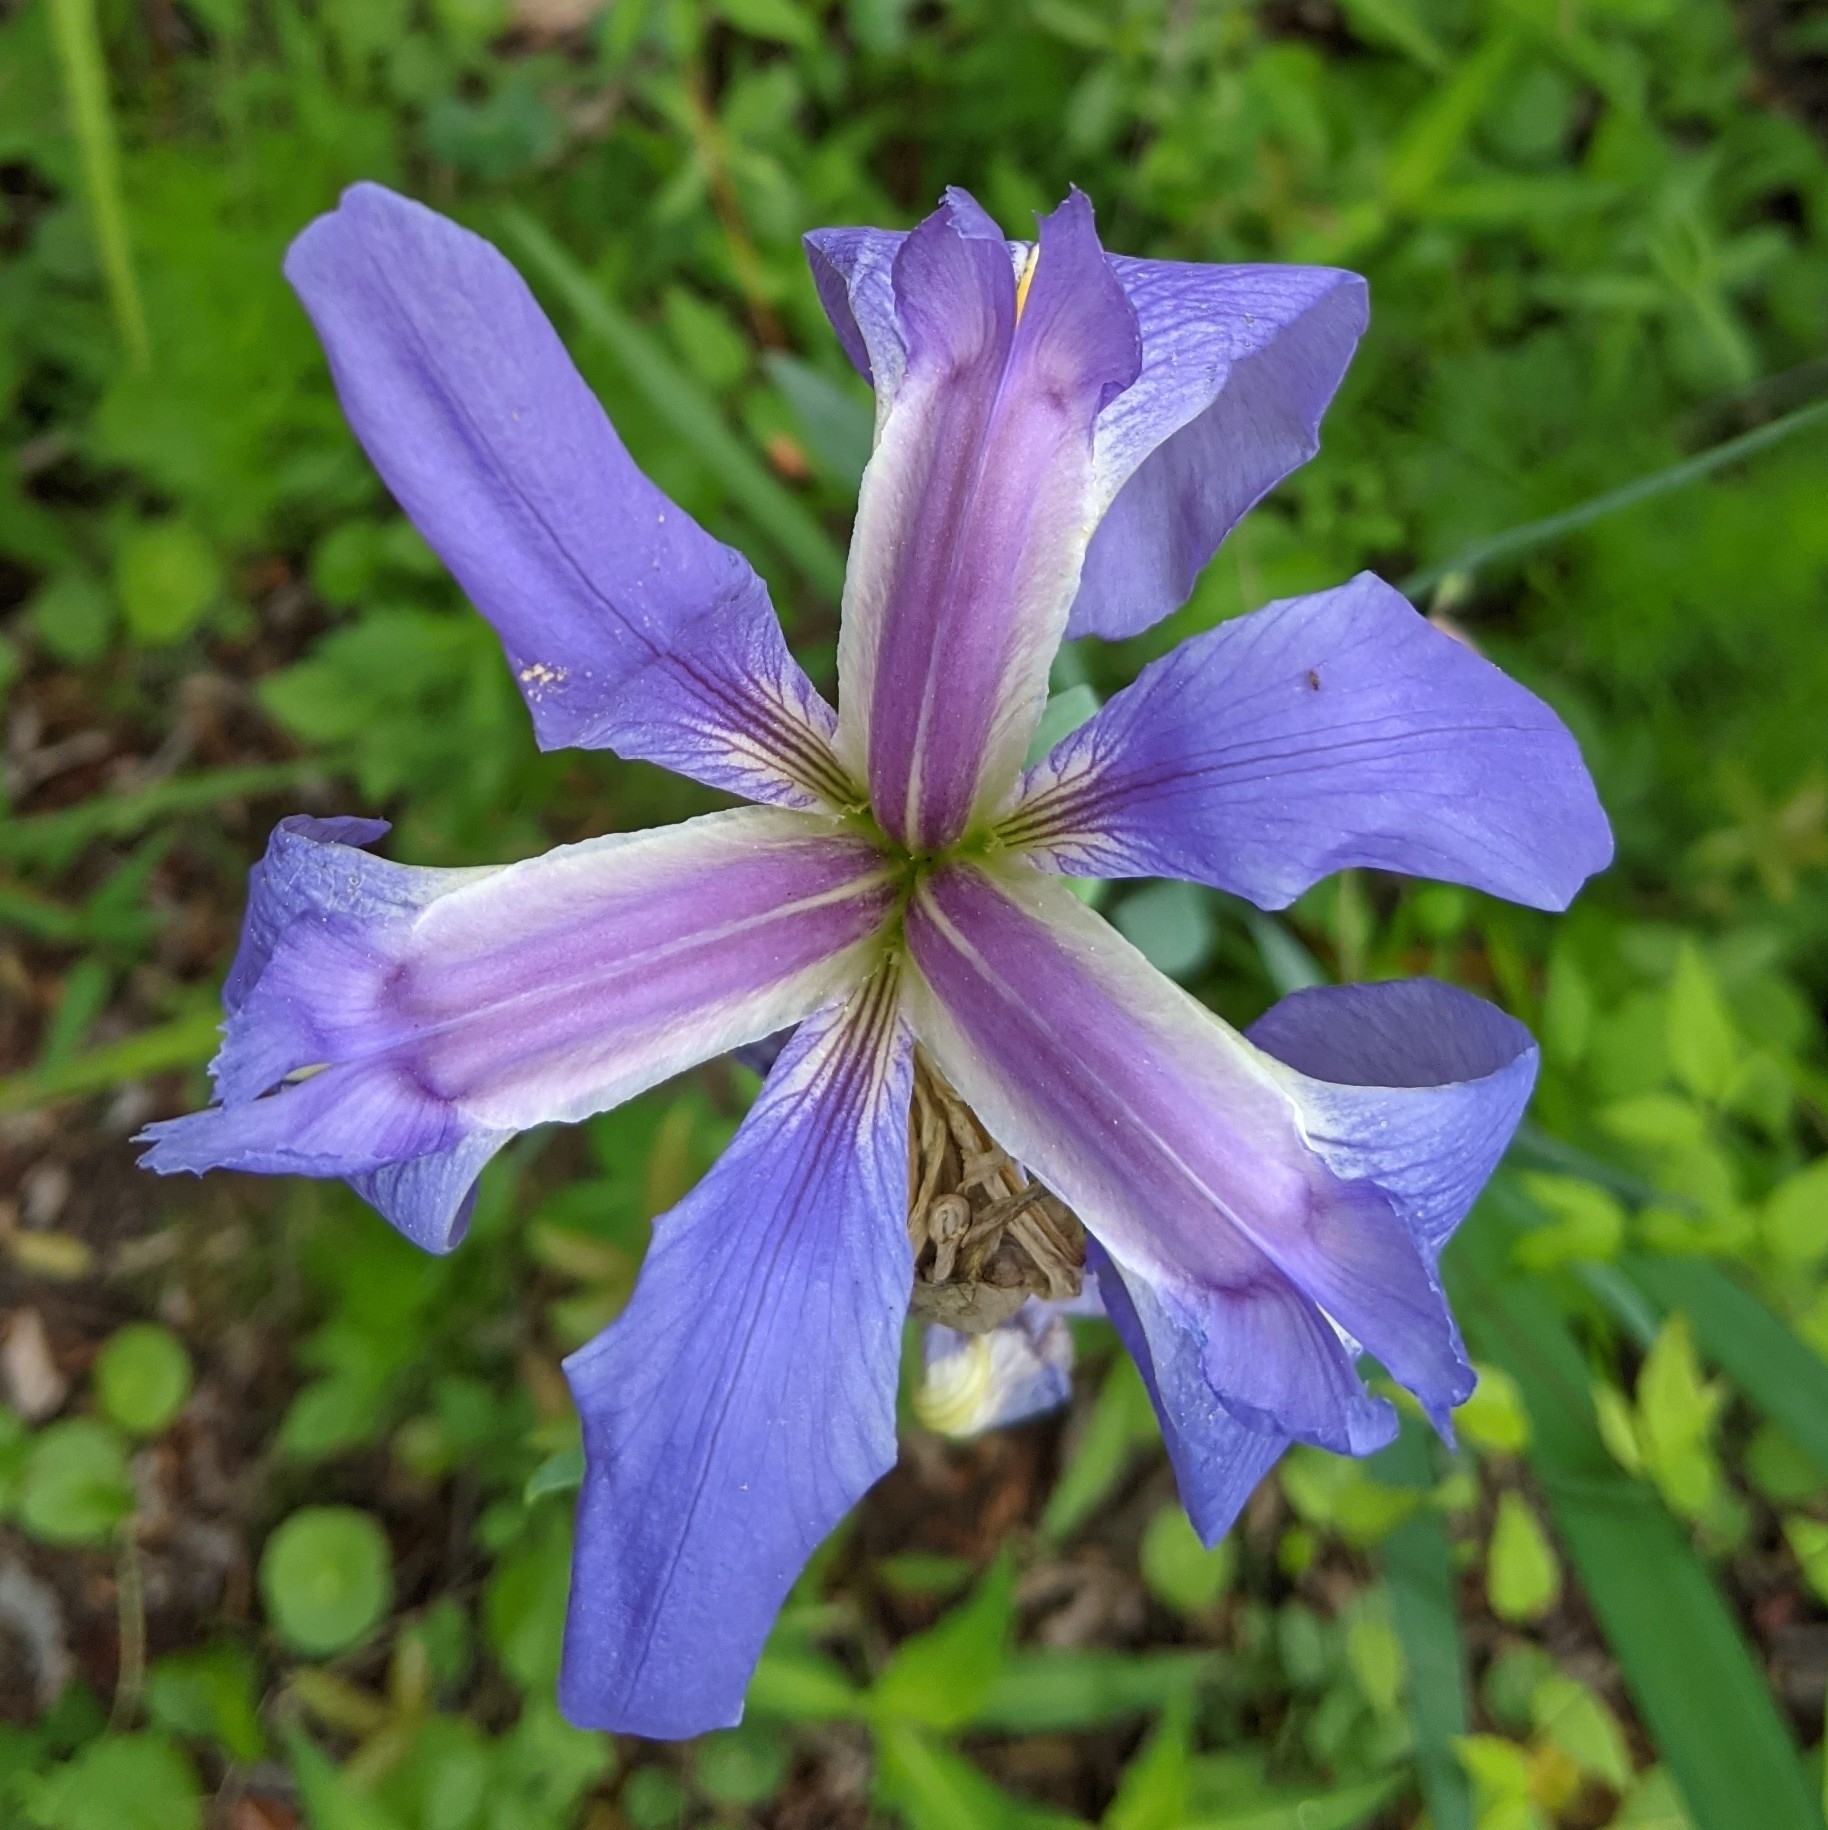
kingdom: Plantae
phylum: Tracheophyta
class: Liliopsida
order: Asparagales
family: Iridaceae
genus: Iris
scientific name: Iris giganticaerulea
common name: Giant blue iris
